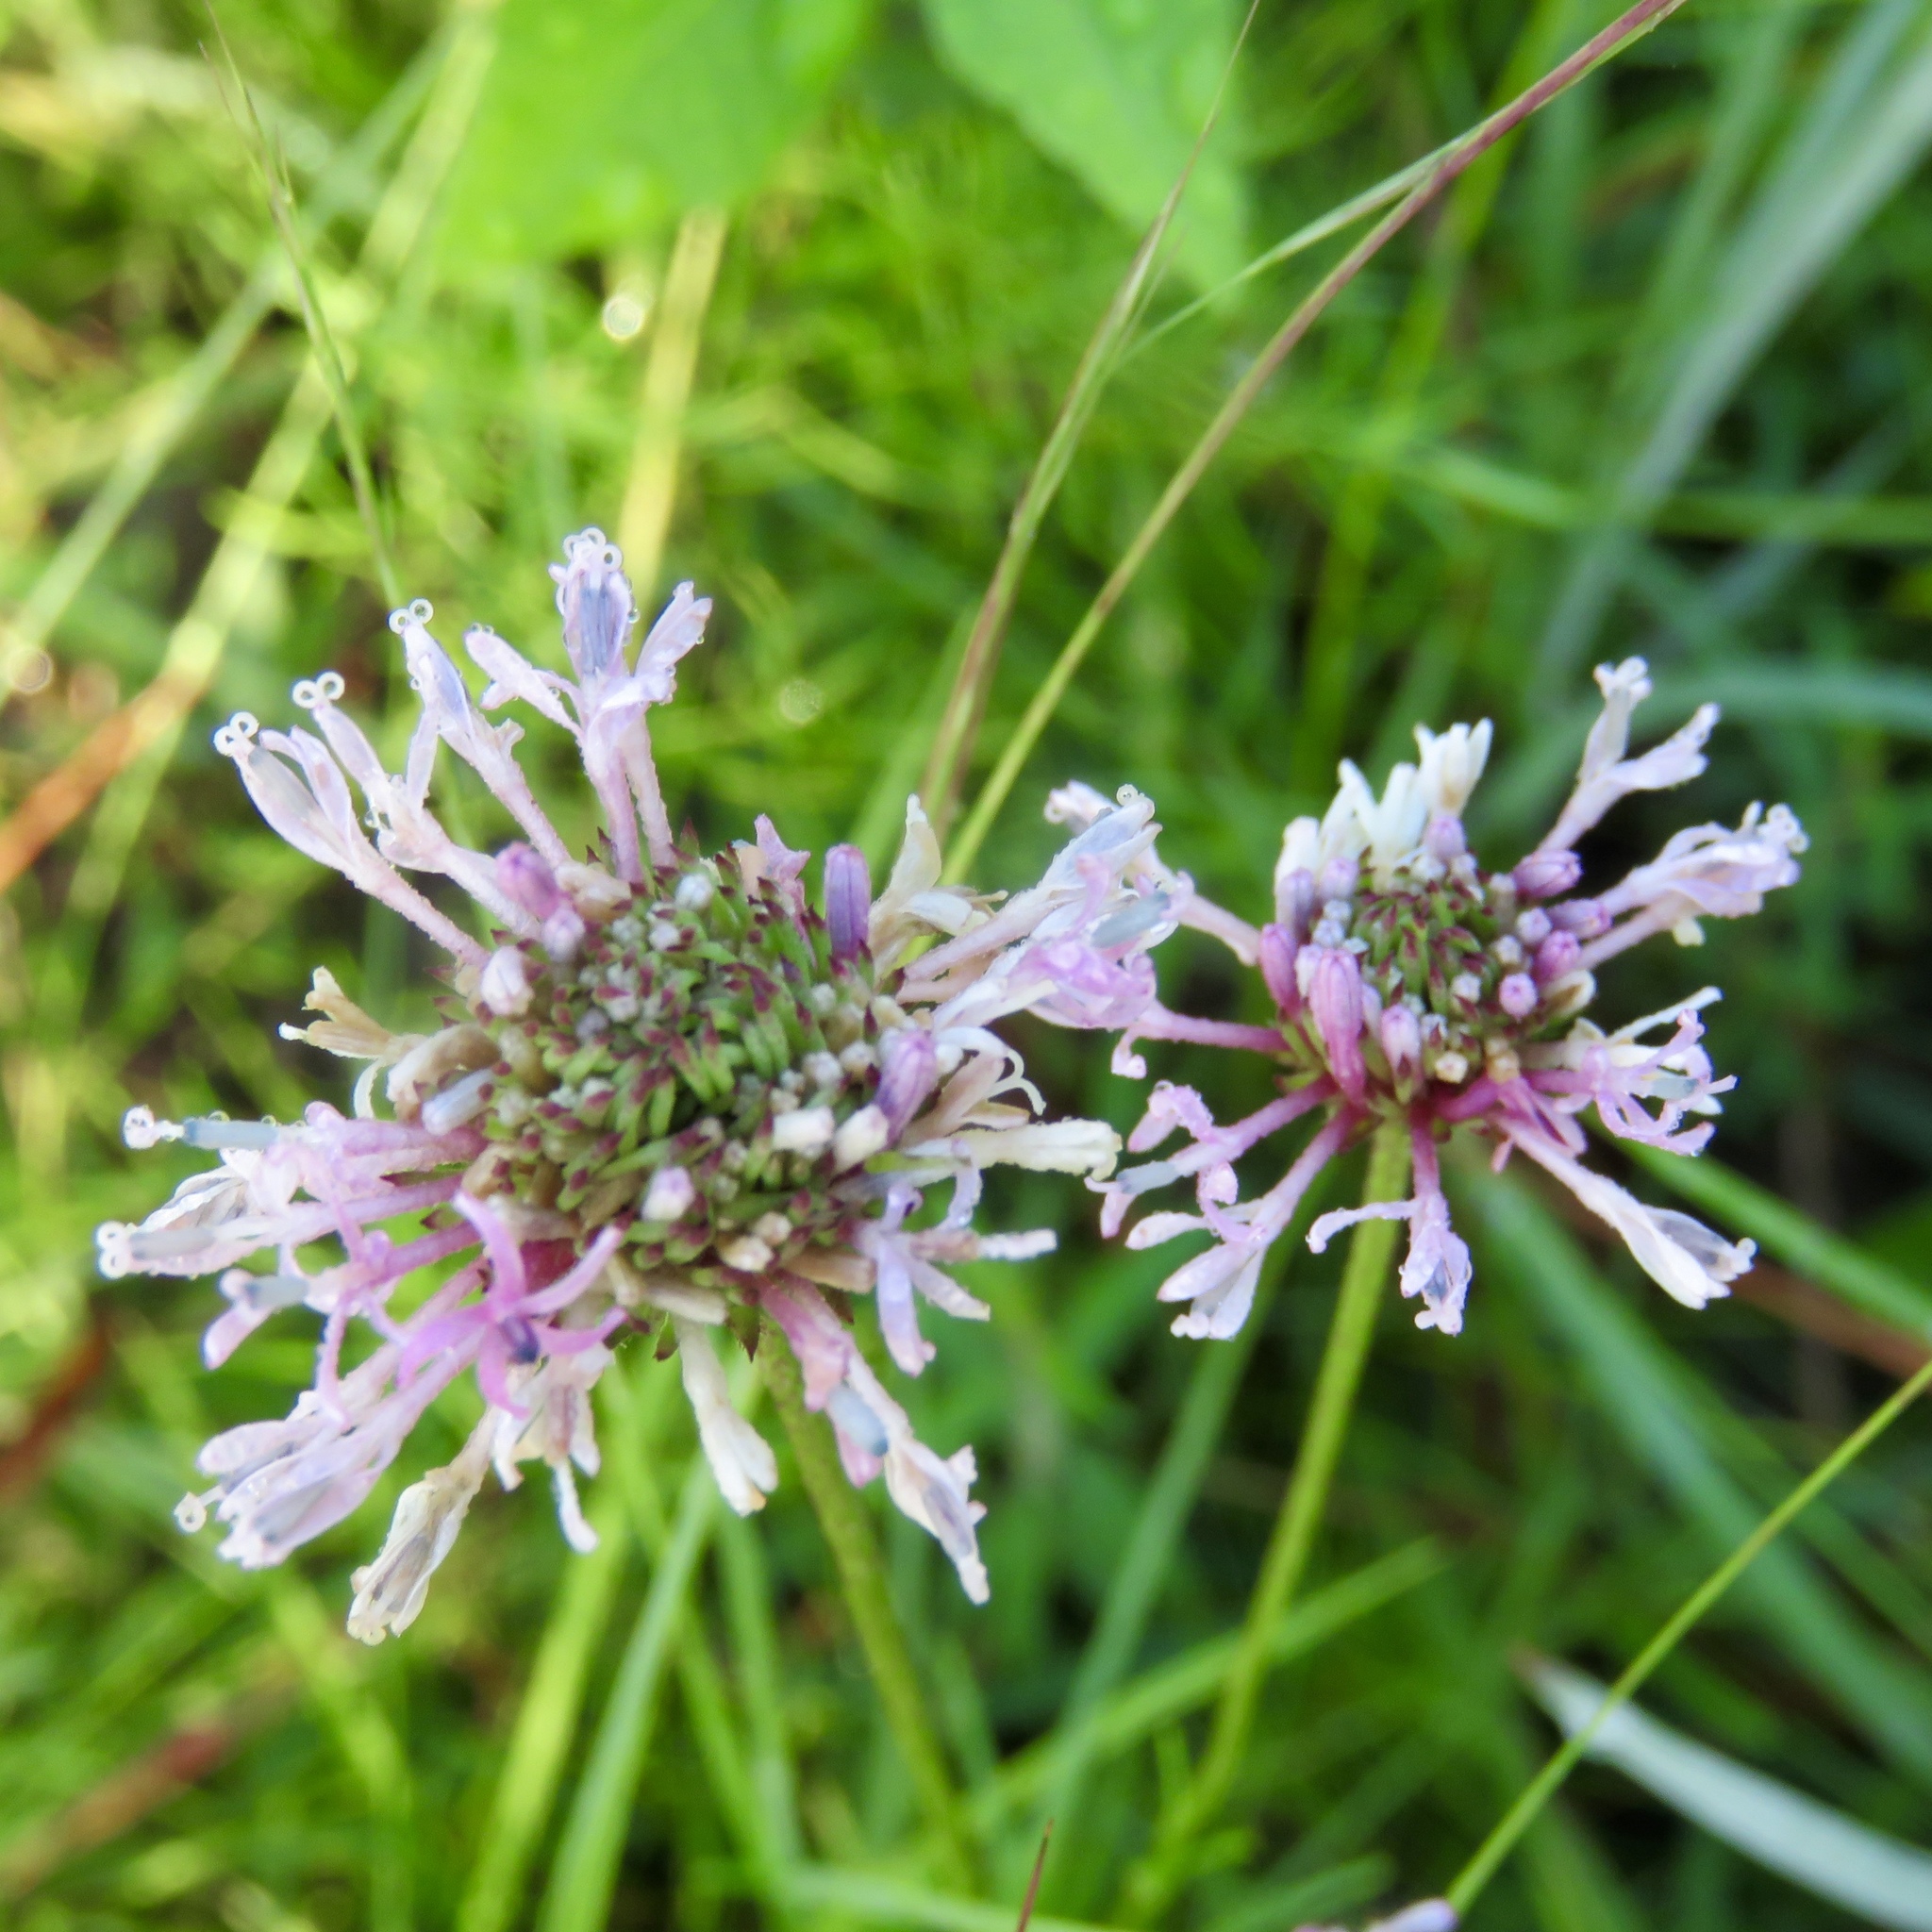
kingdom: Plantae
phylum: Tracheophyta
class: Magnoliopsida
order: Asterales
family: Asteraceae
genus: Marshallia
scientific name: Marshallia graminifolia
